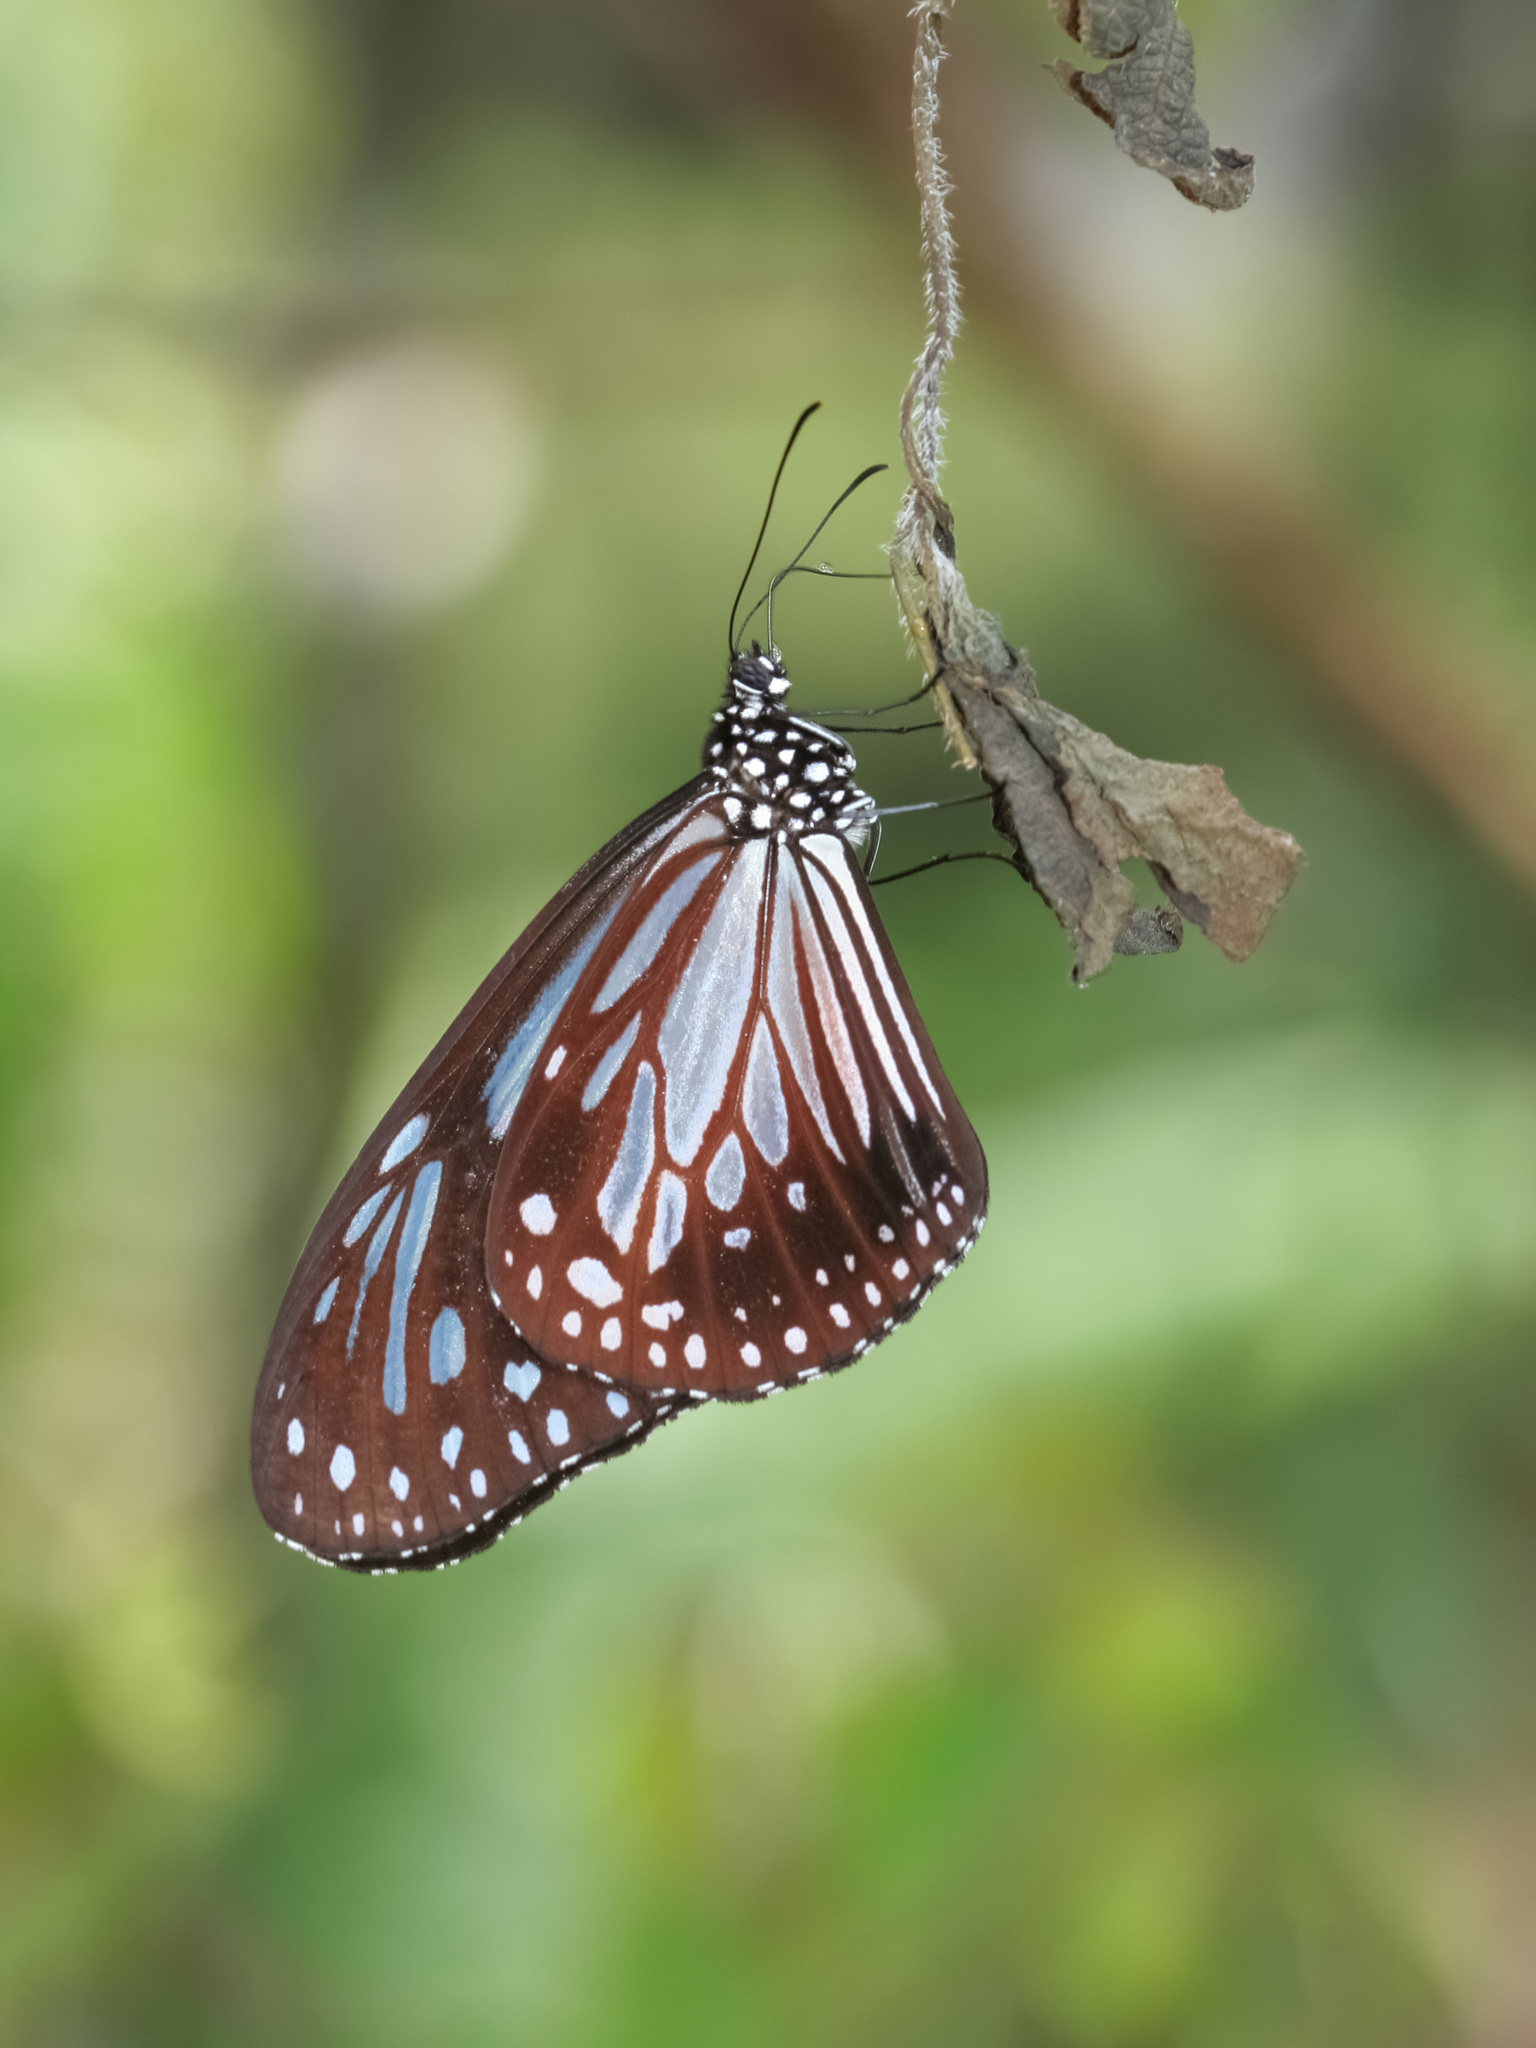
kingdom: Animalia
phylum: Arthropoda
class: Insecta
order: Lepidoptera
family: Nymphalidae
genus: Parantica
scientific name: Parantica melaneus
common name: Chocolate tiger
